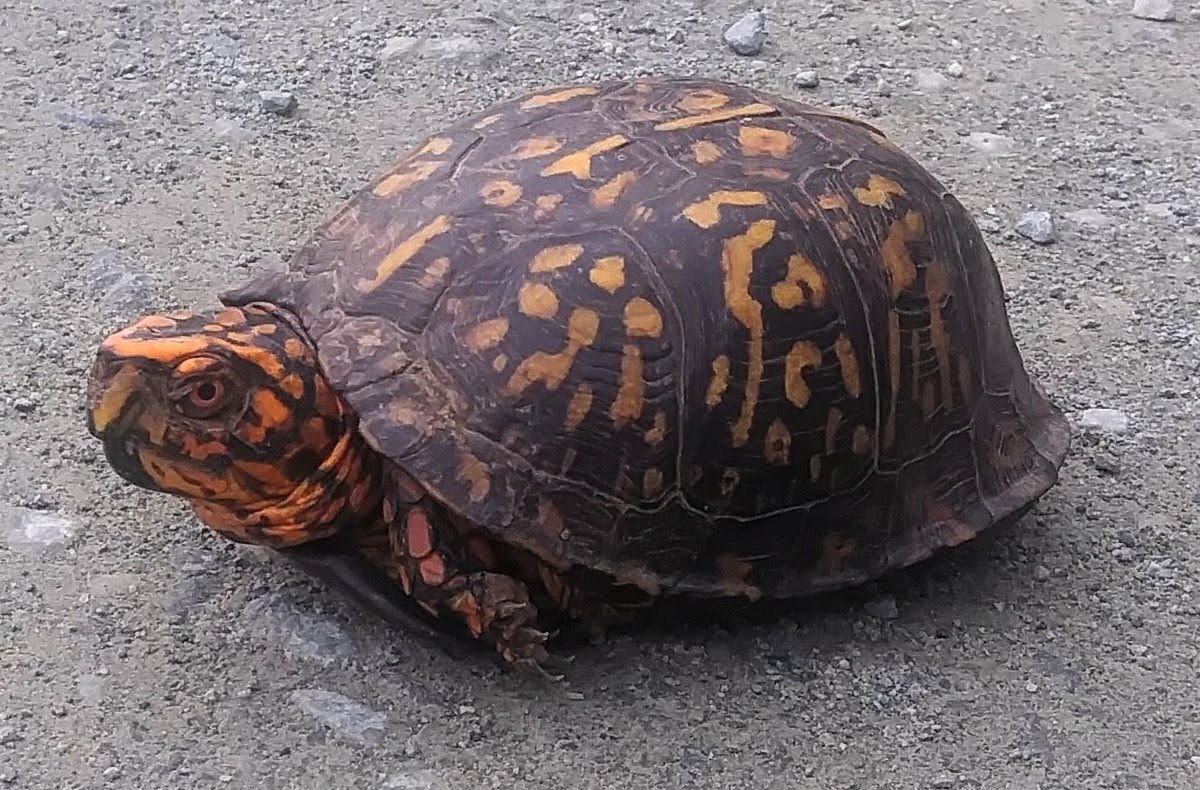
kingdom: Animalia
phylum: Chordata
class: Testudines
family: Emydidae
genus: Terrapene
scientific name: Terrapene carolina
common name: Common box turtle
